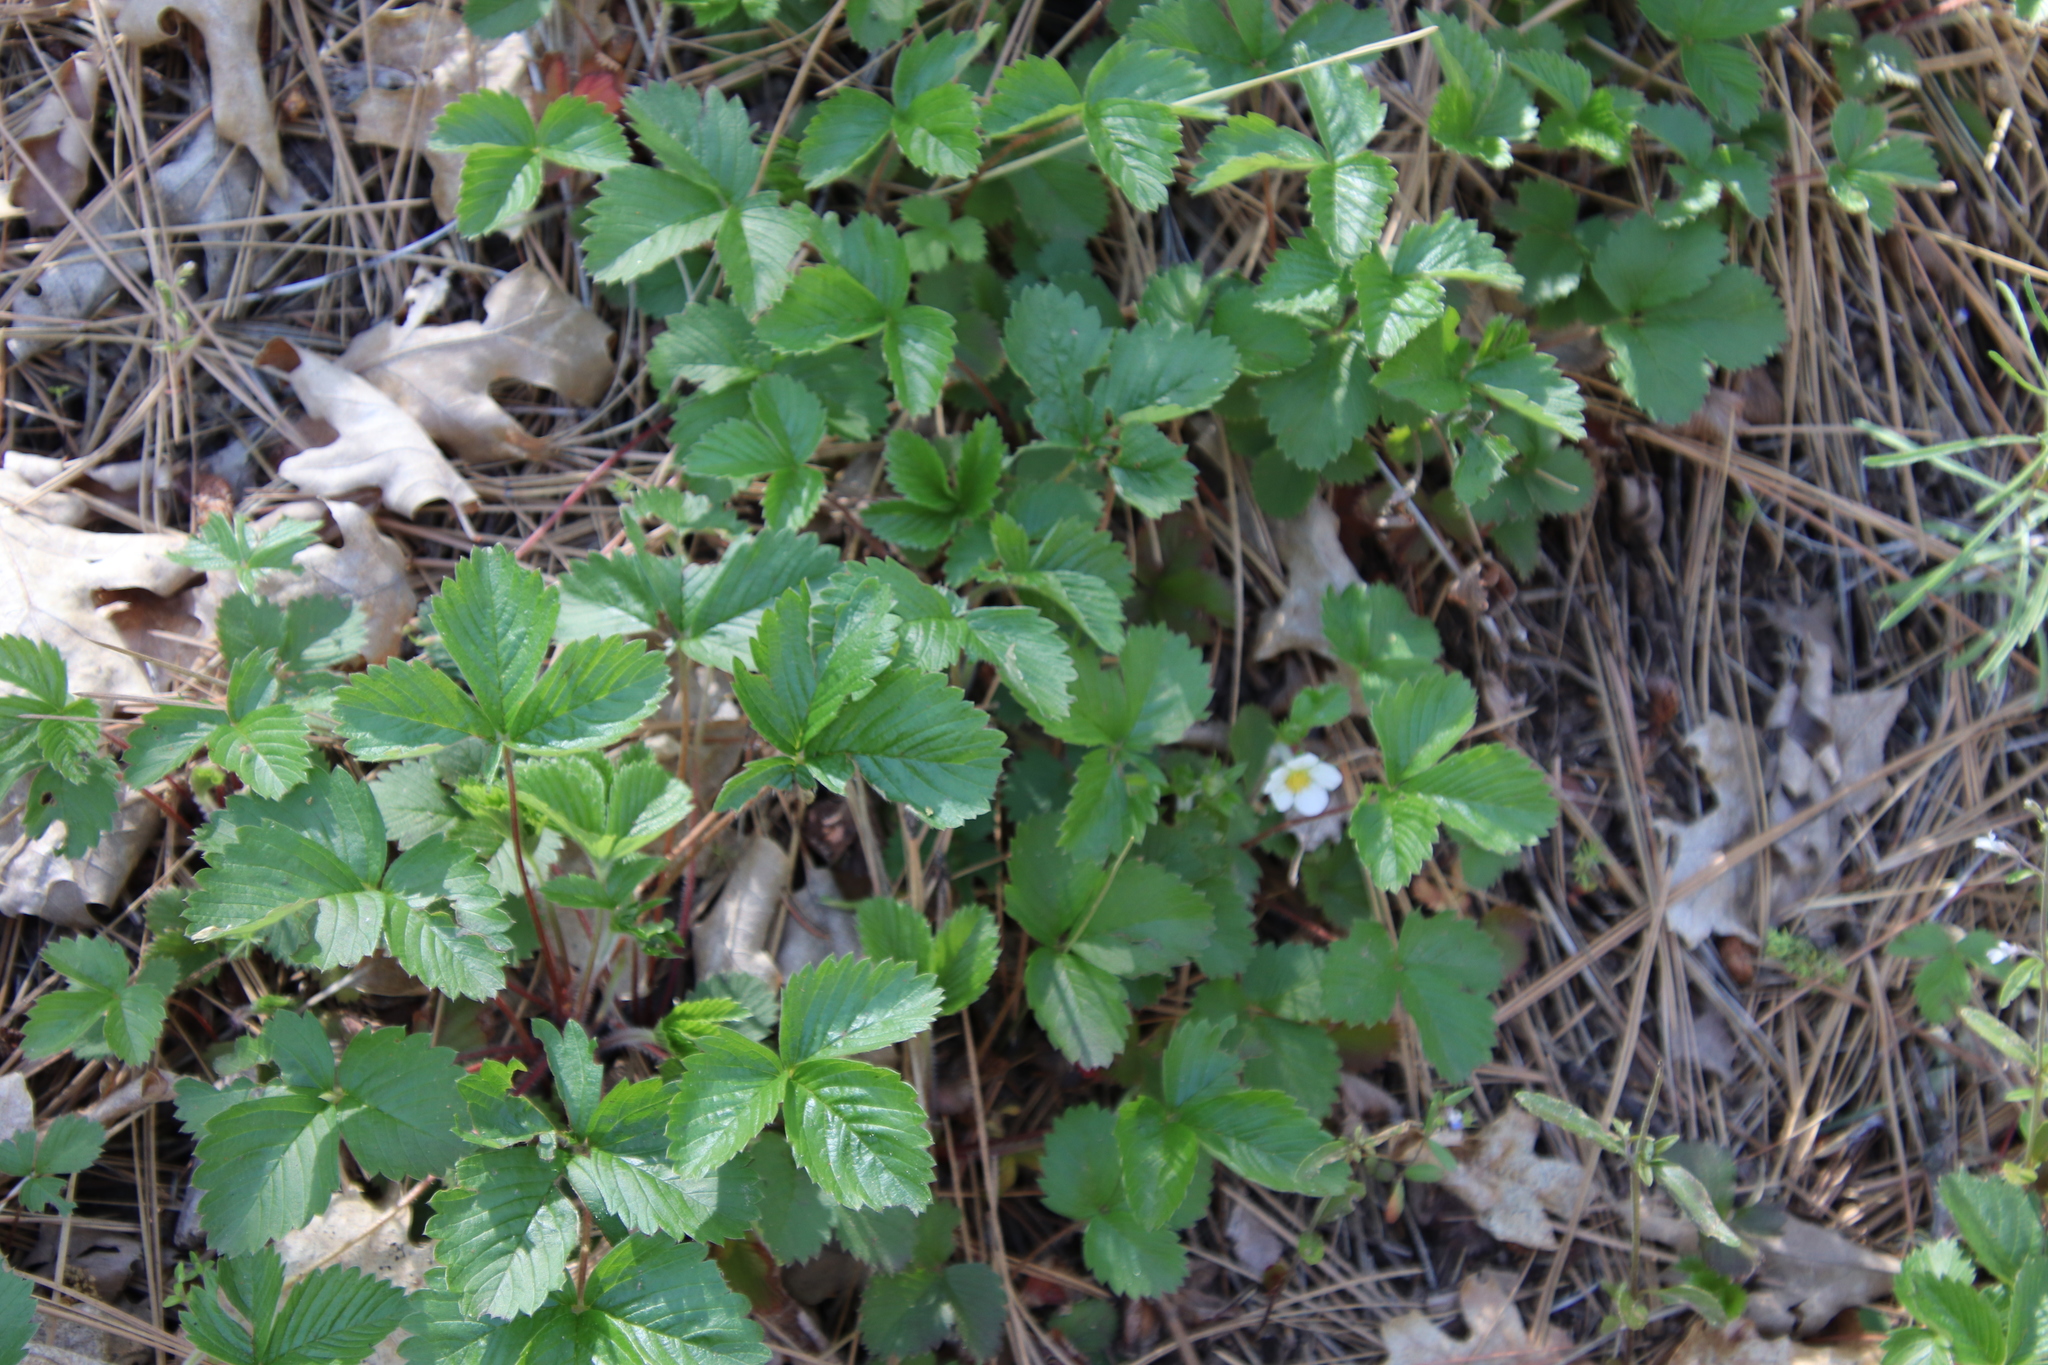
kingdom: Plantae
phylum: Tracheophyta
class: Magnoliopsida
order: Rosales
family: Rosaceae
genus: Fragaria
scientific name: Fragaria vesca
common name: Wild strawberry
